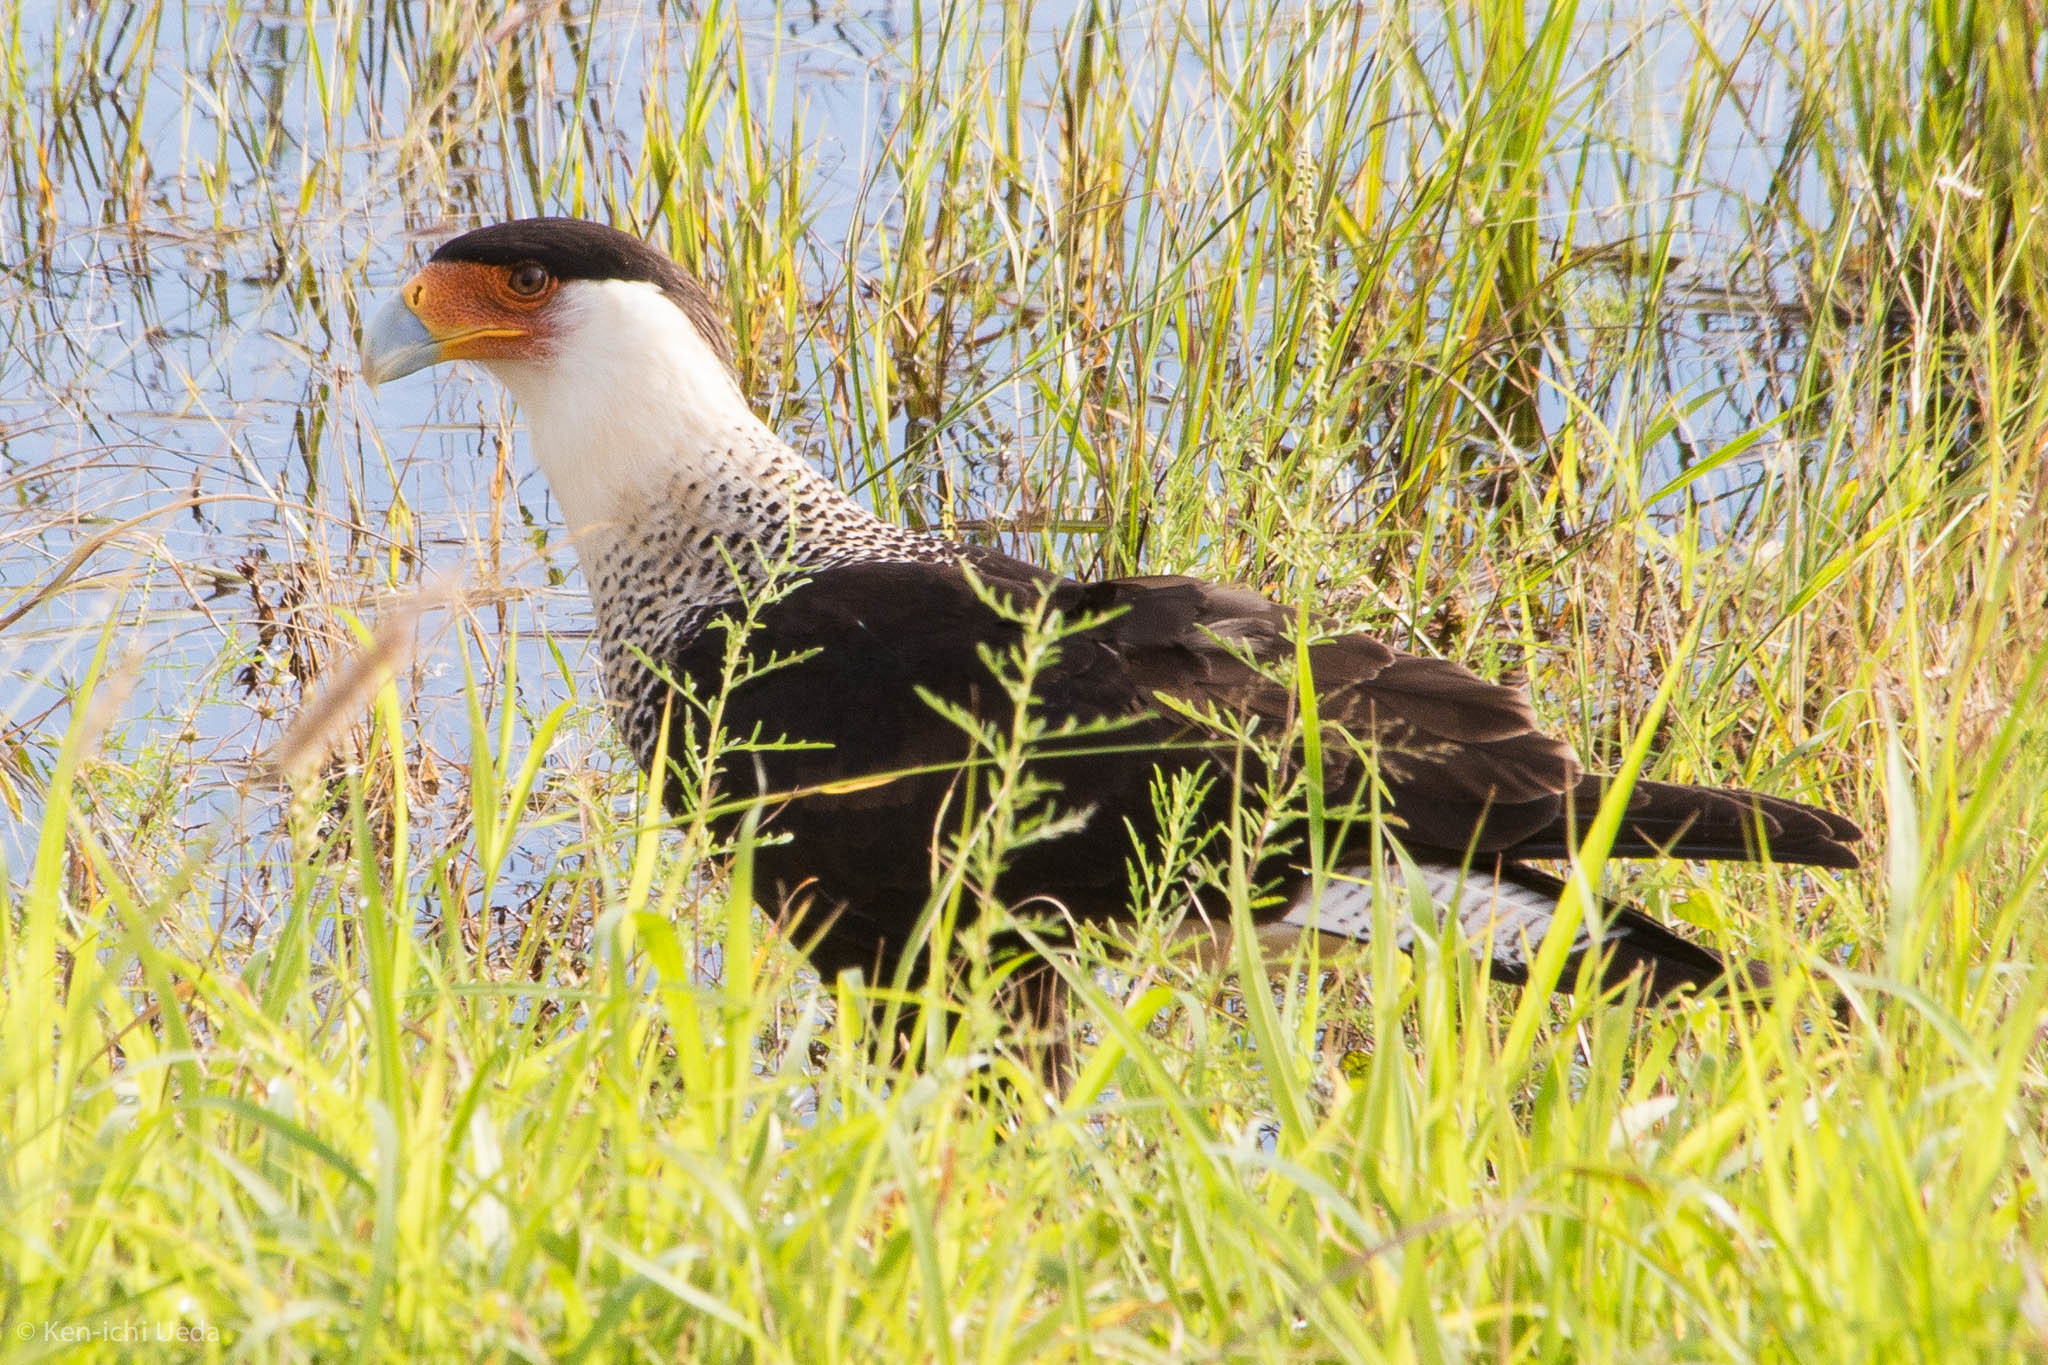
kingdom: Animalia
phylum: Chordata
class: Aves
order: Falconiformes
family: Falconidae
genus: Caracara
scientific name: Caracara plancus
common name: Southern caracara
